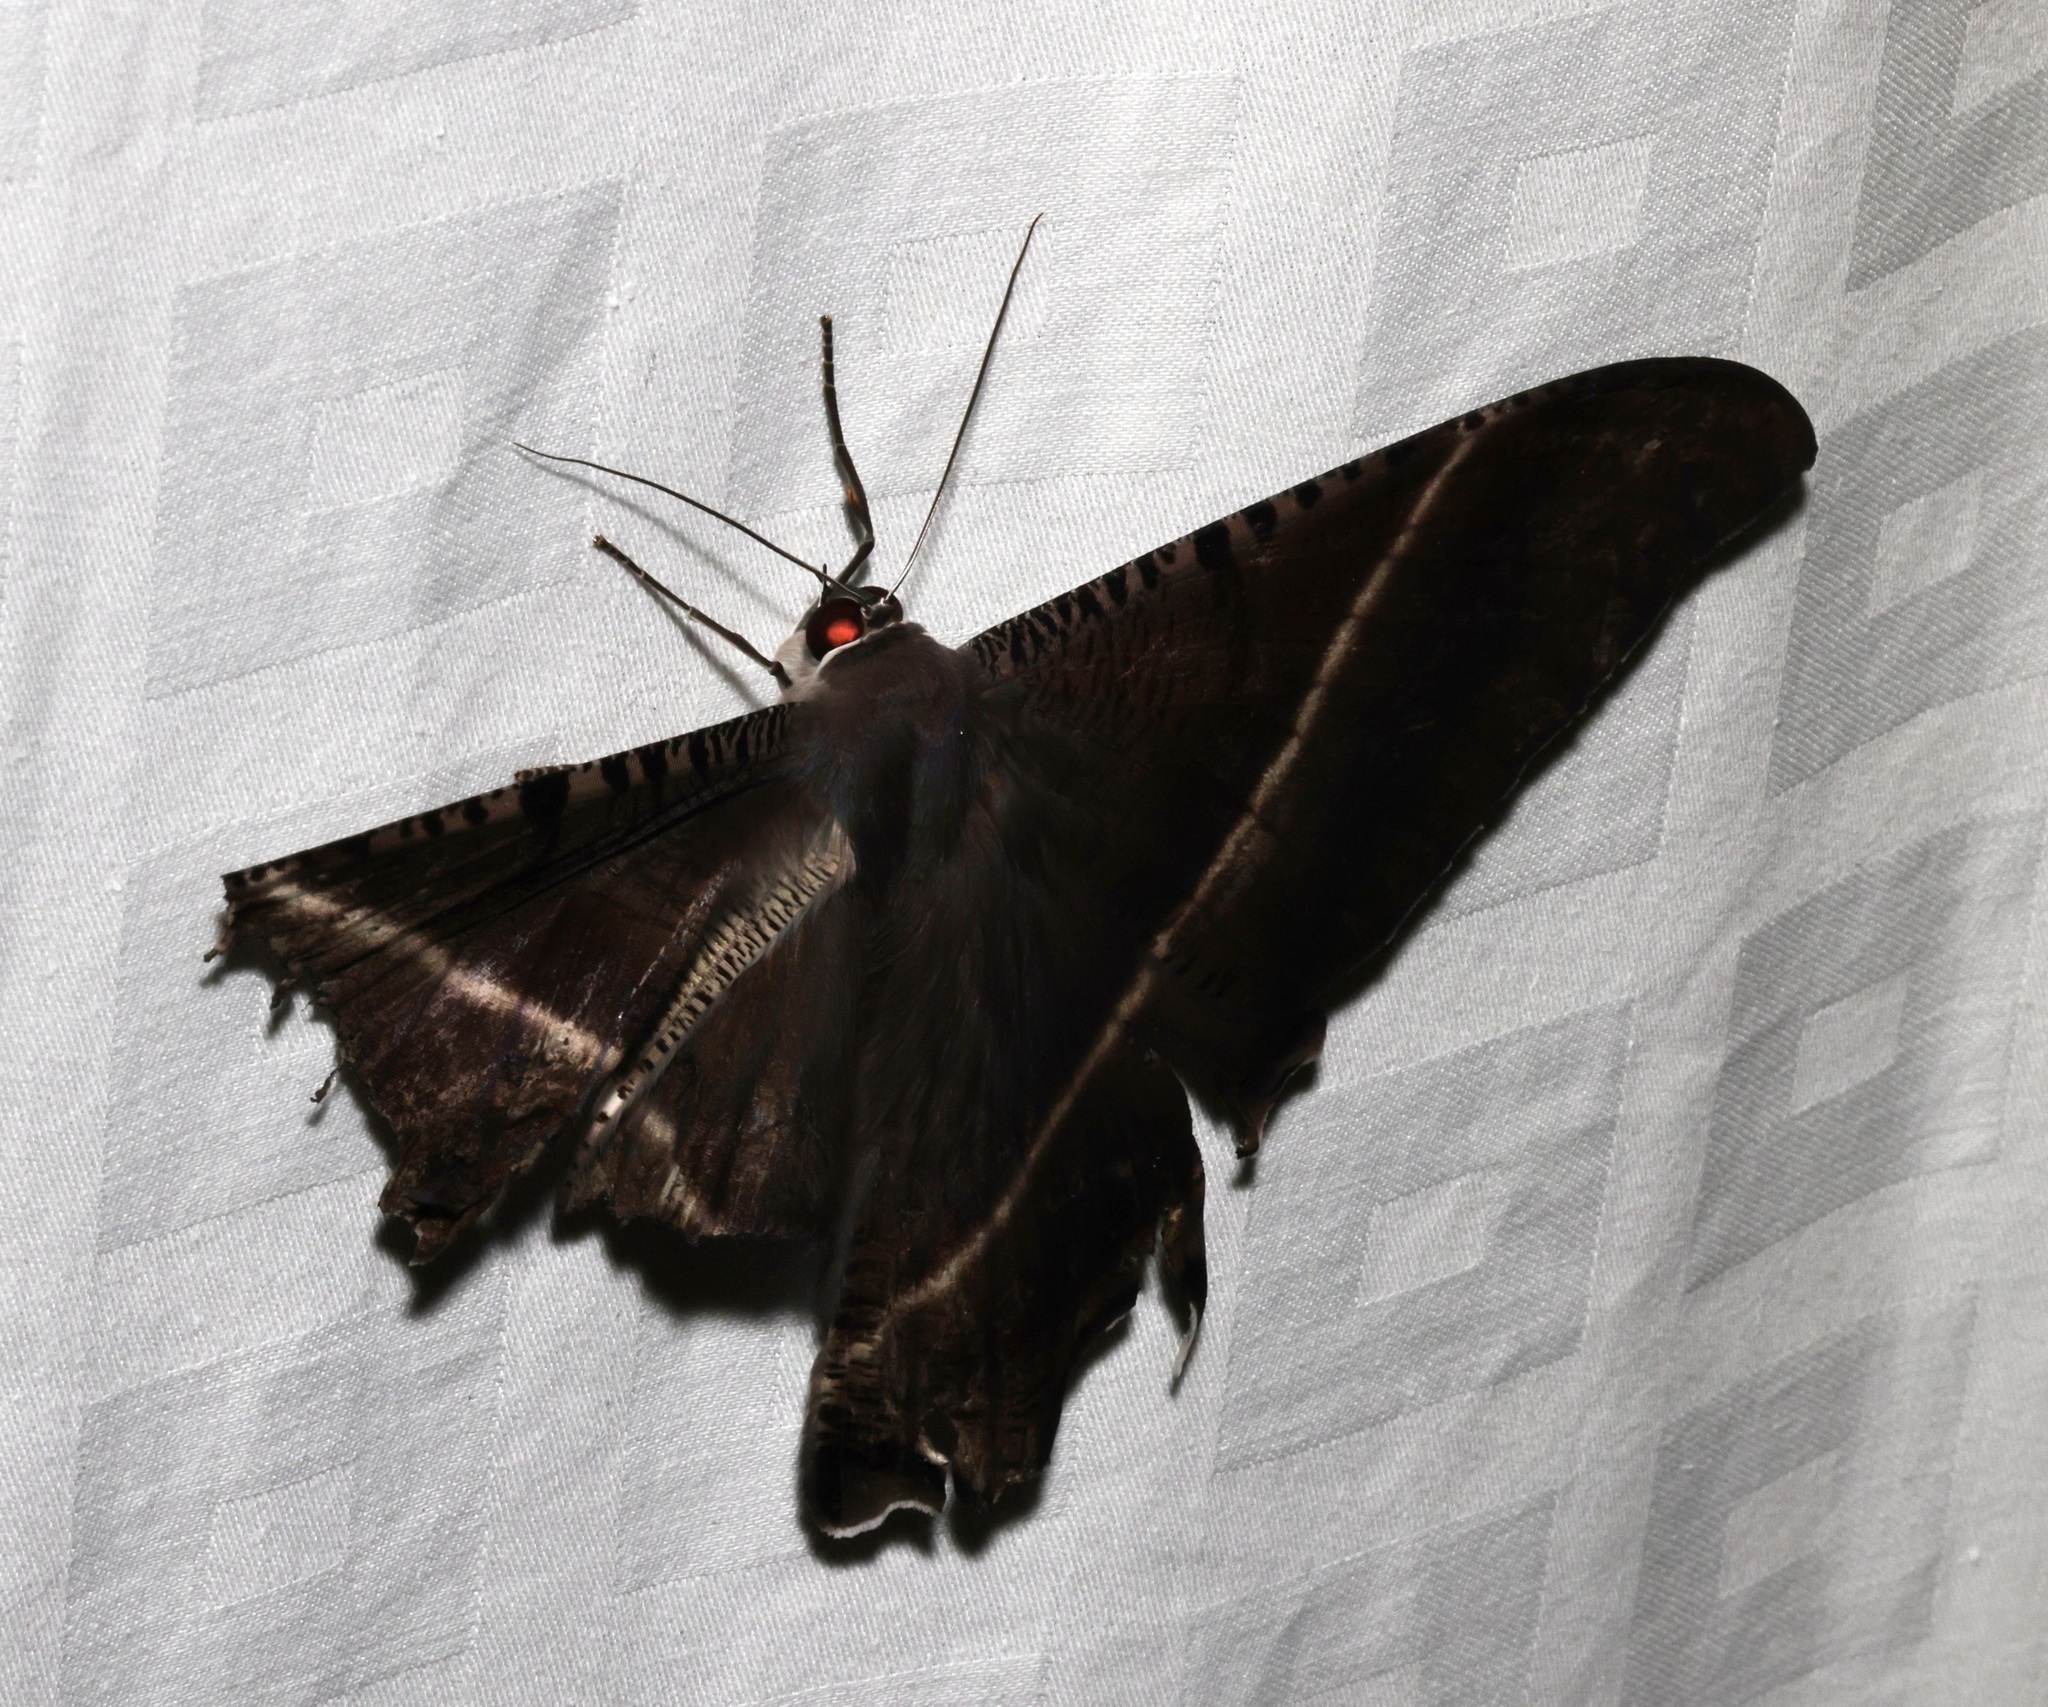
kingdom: Animalia
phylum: Arthropoda
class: Insecta
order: Lepidoptera
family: Uraniidae
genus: Lyssa
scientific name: Lyssa zampa
